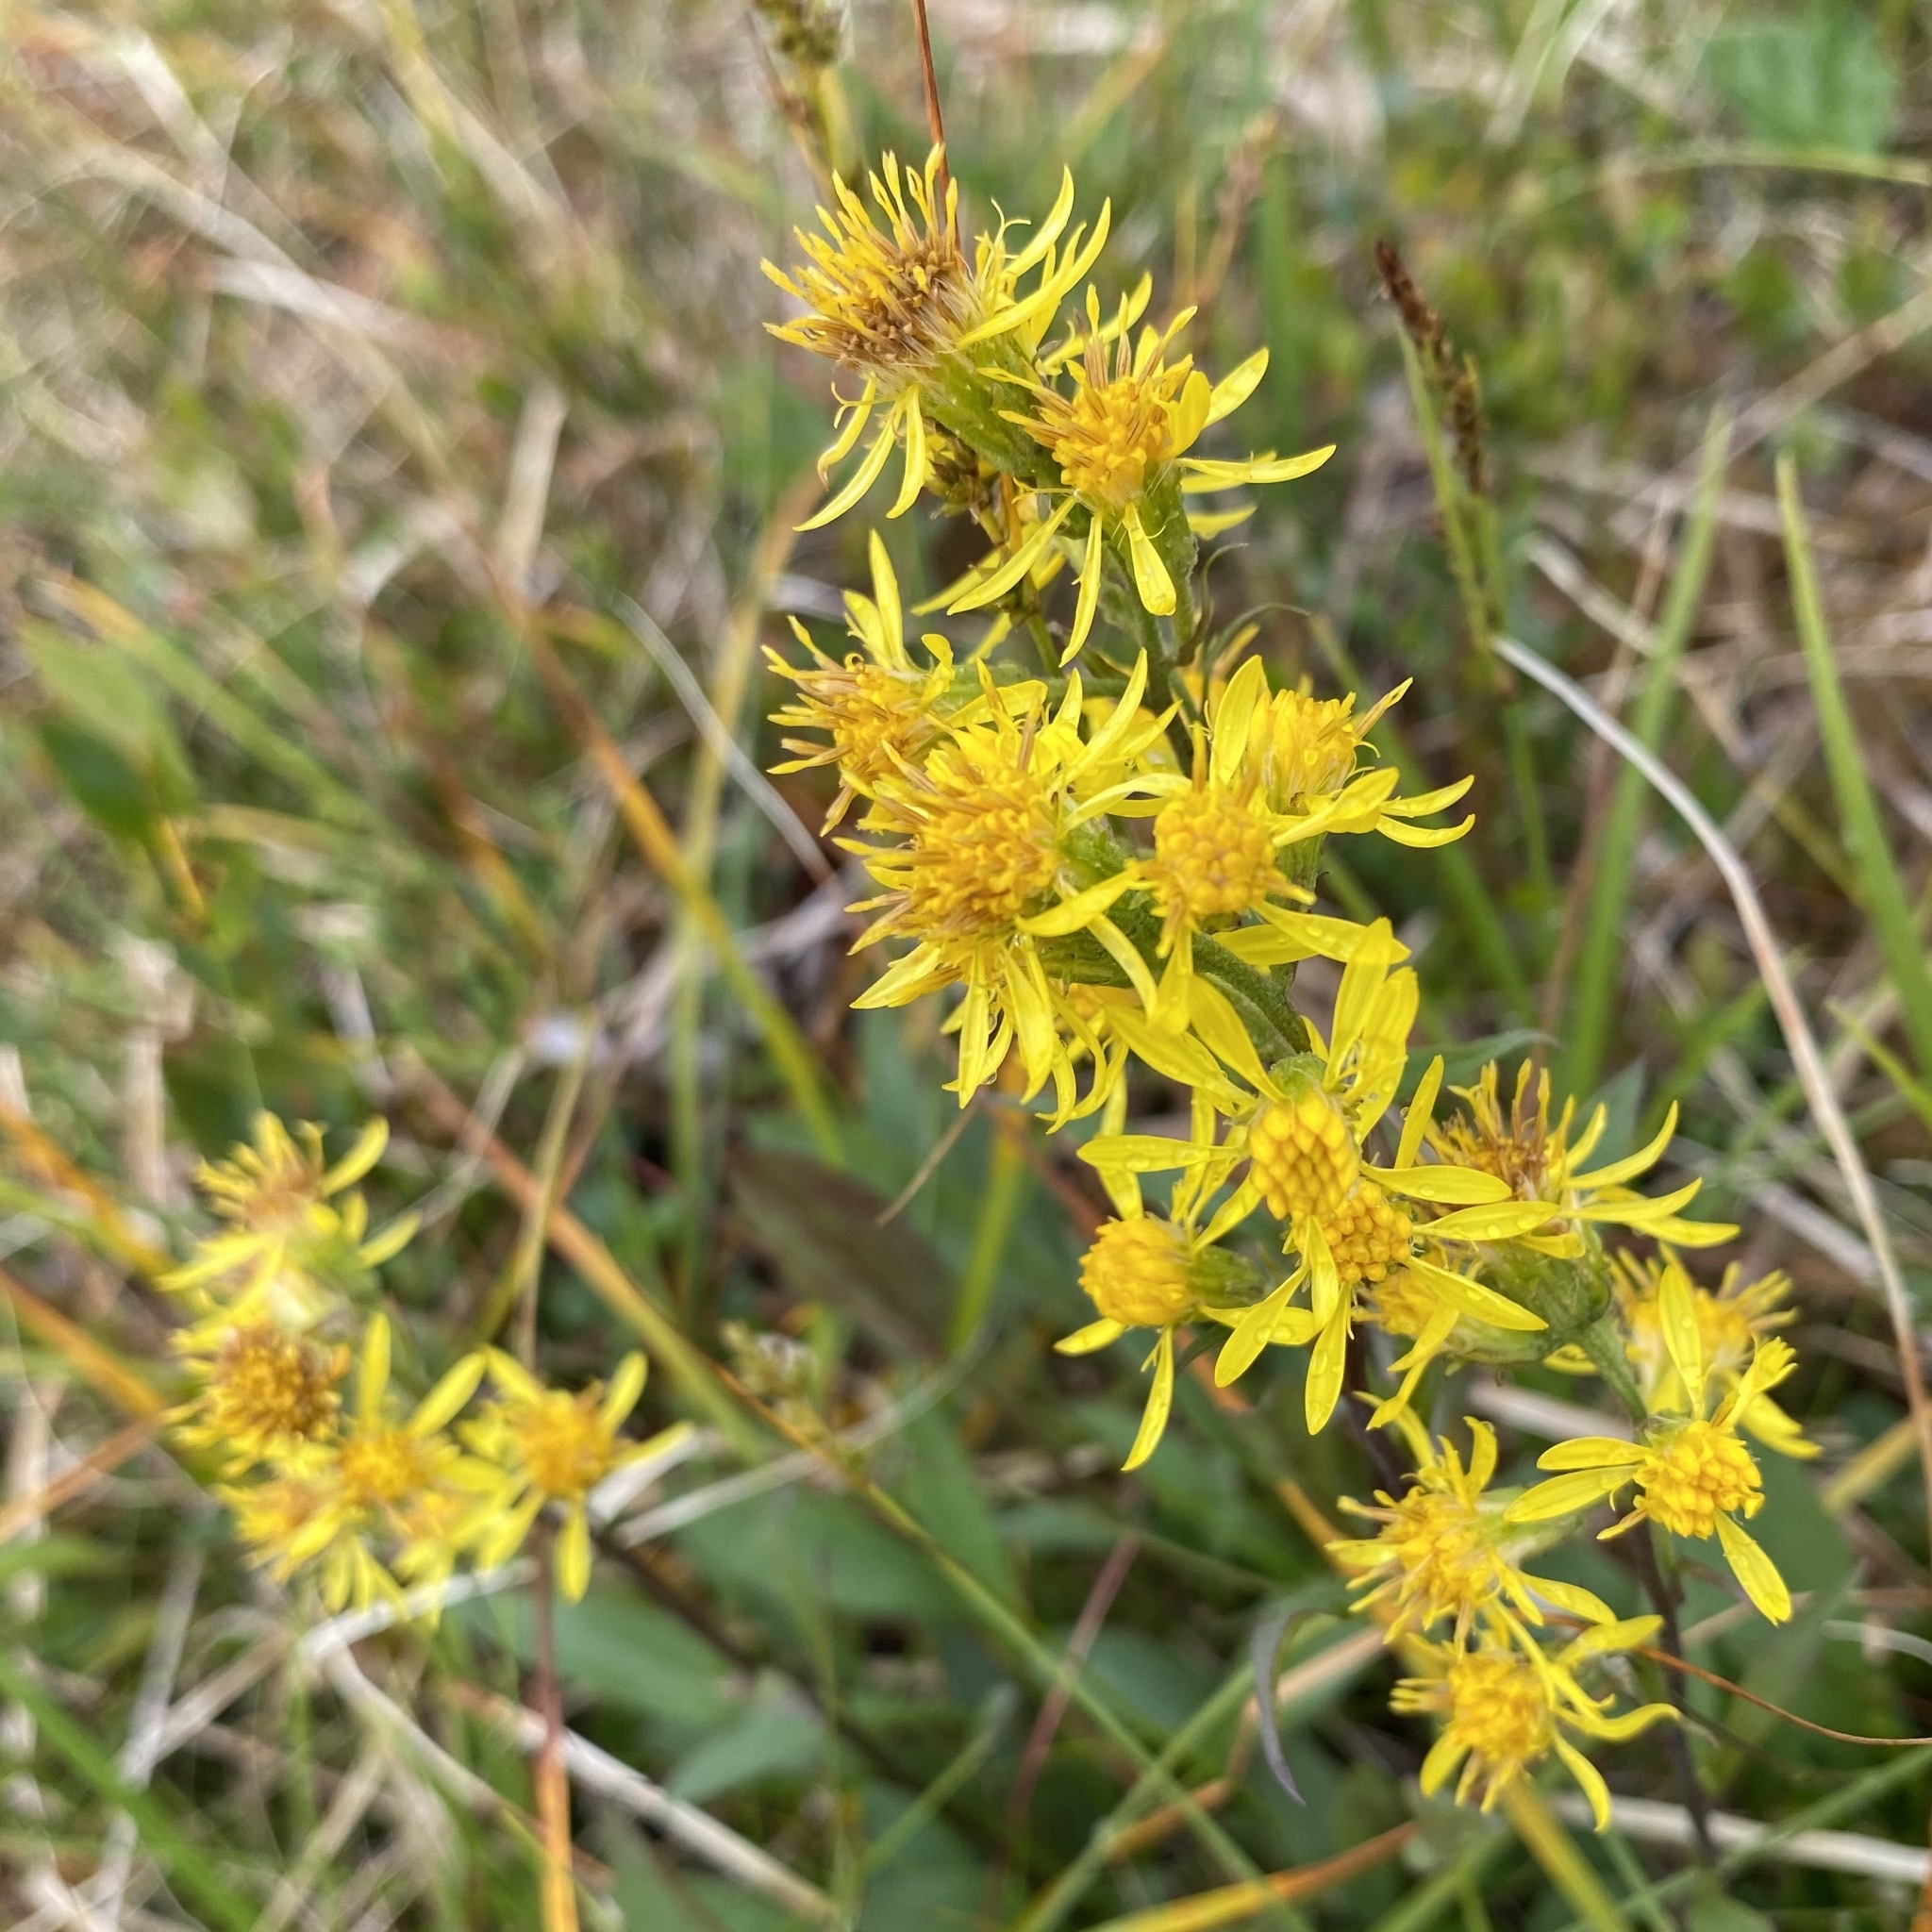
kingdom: Plantae
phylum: Tracheophyta
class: Magnoliopsida
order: Asterales
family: Asteraceae
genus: Solidago
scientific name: Solidago virgaurea
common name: Goldenrod
